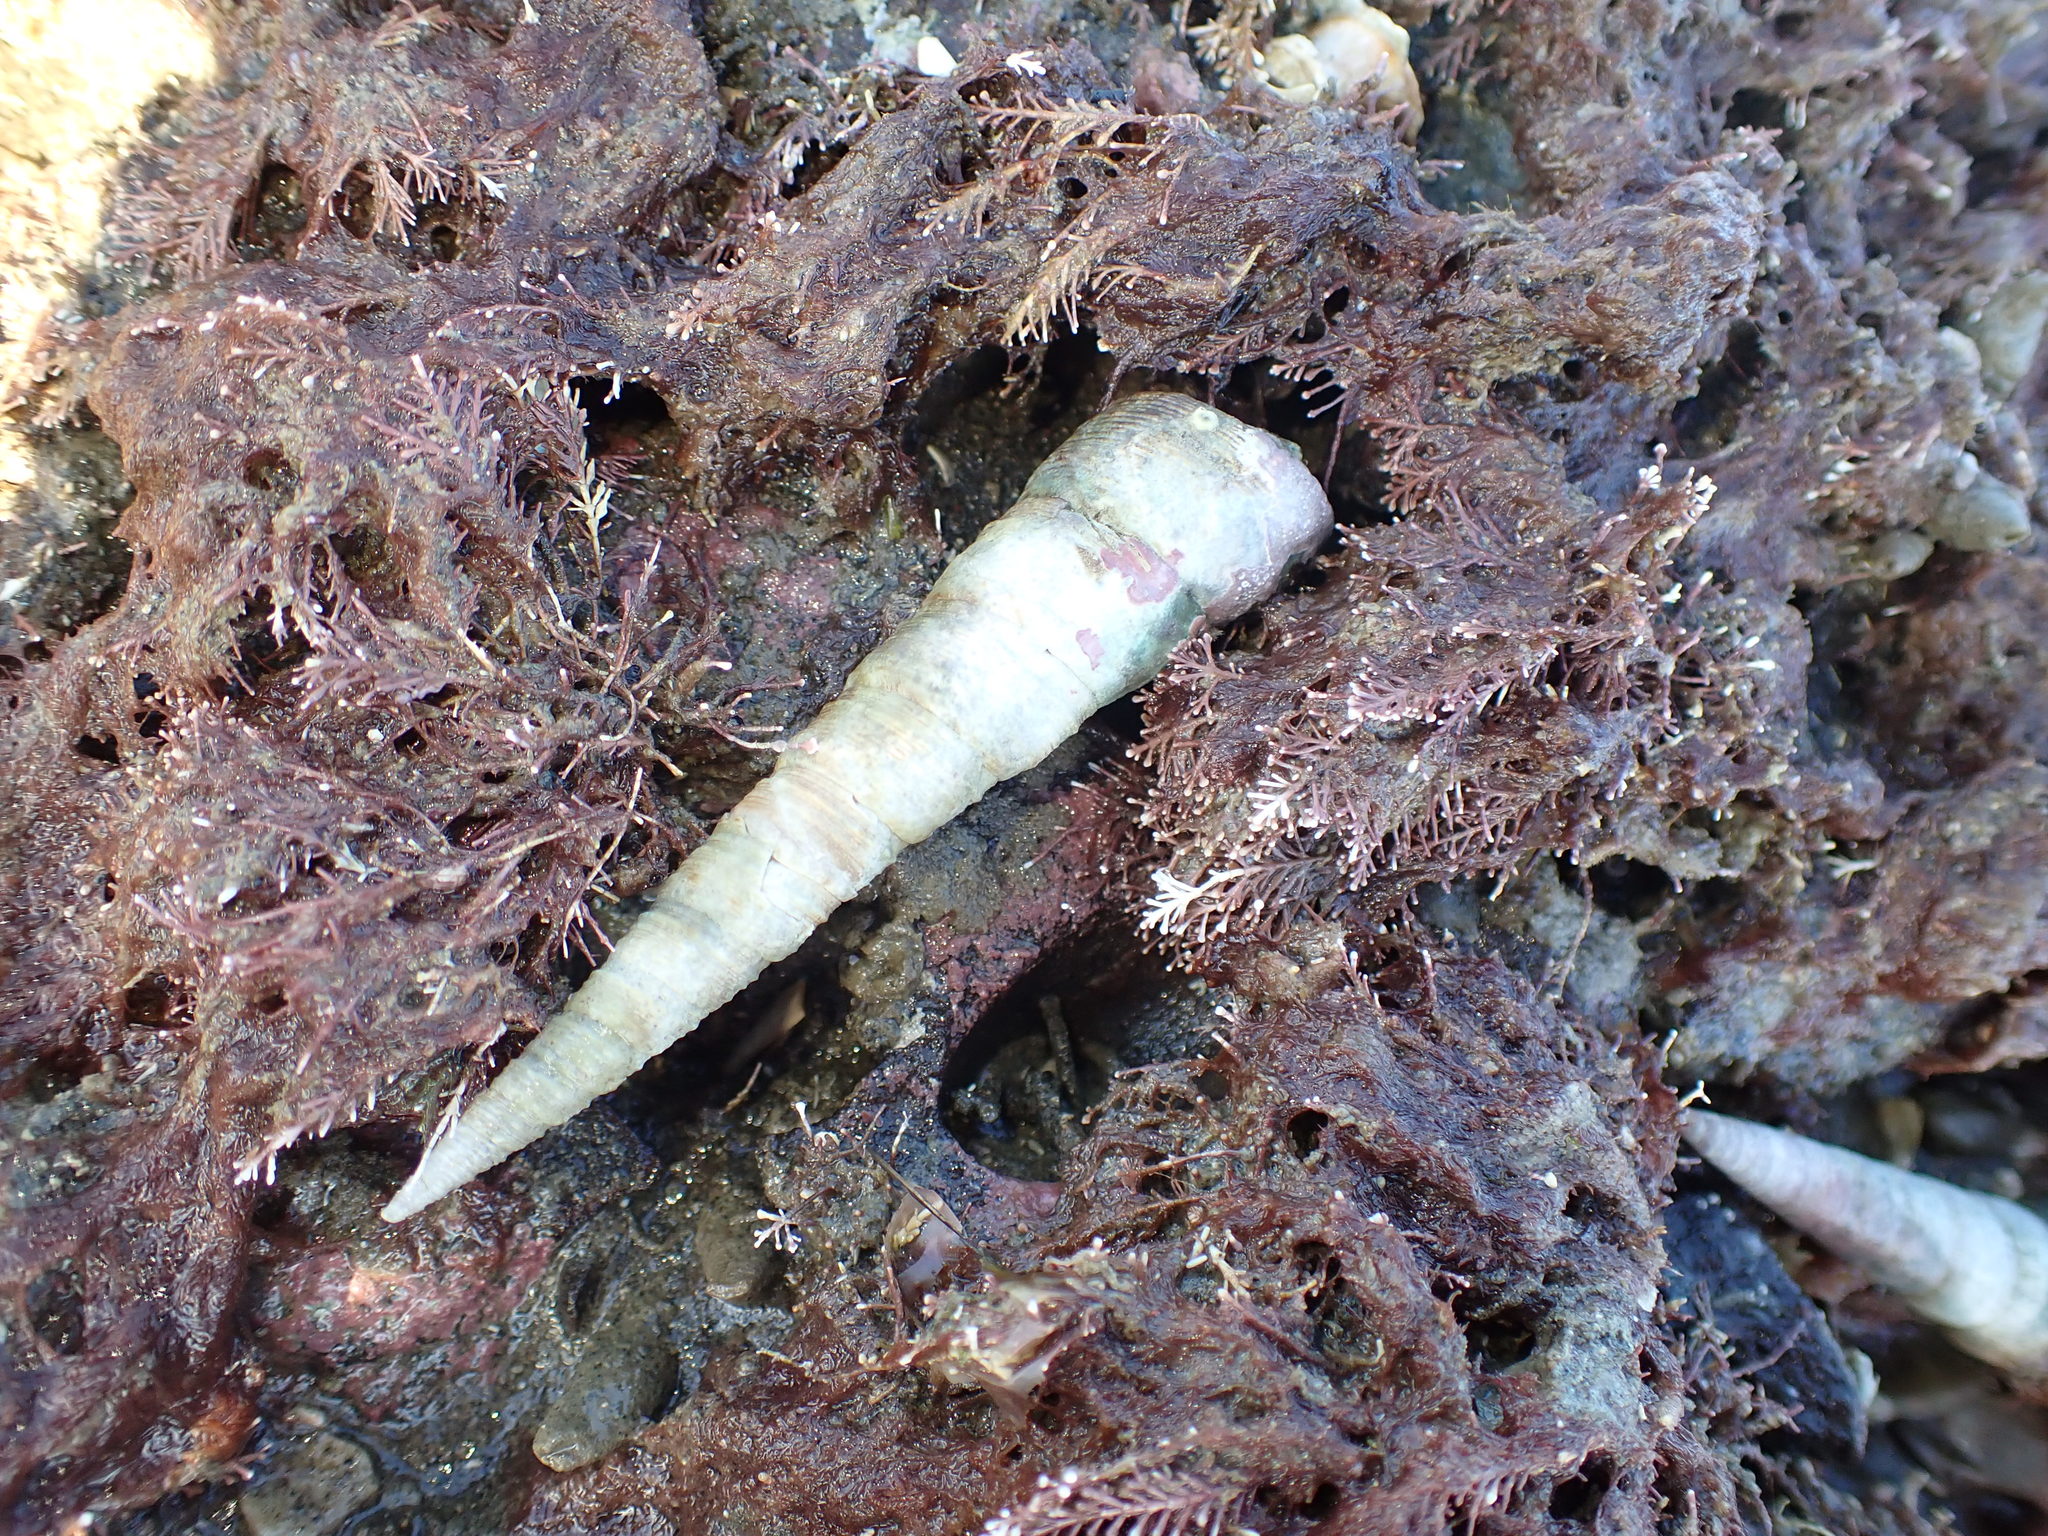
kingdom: Animalia
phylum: Mollusca
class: Gastropoda
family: Turritellidae
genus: Maoricolpus
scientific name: Maoricolpus roseus
